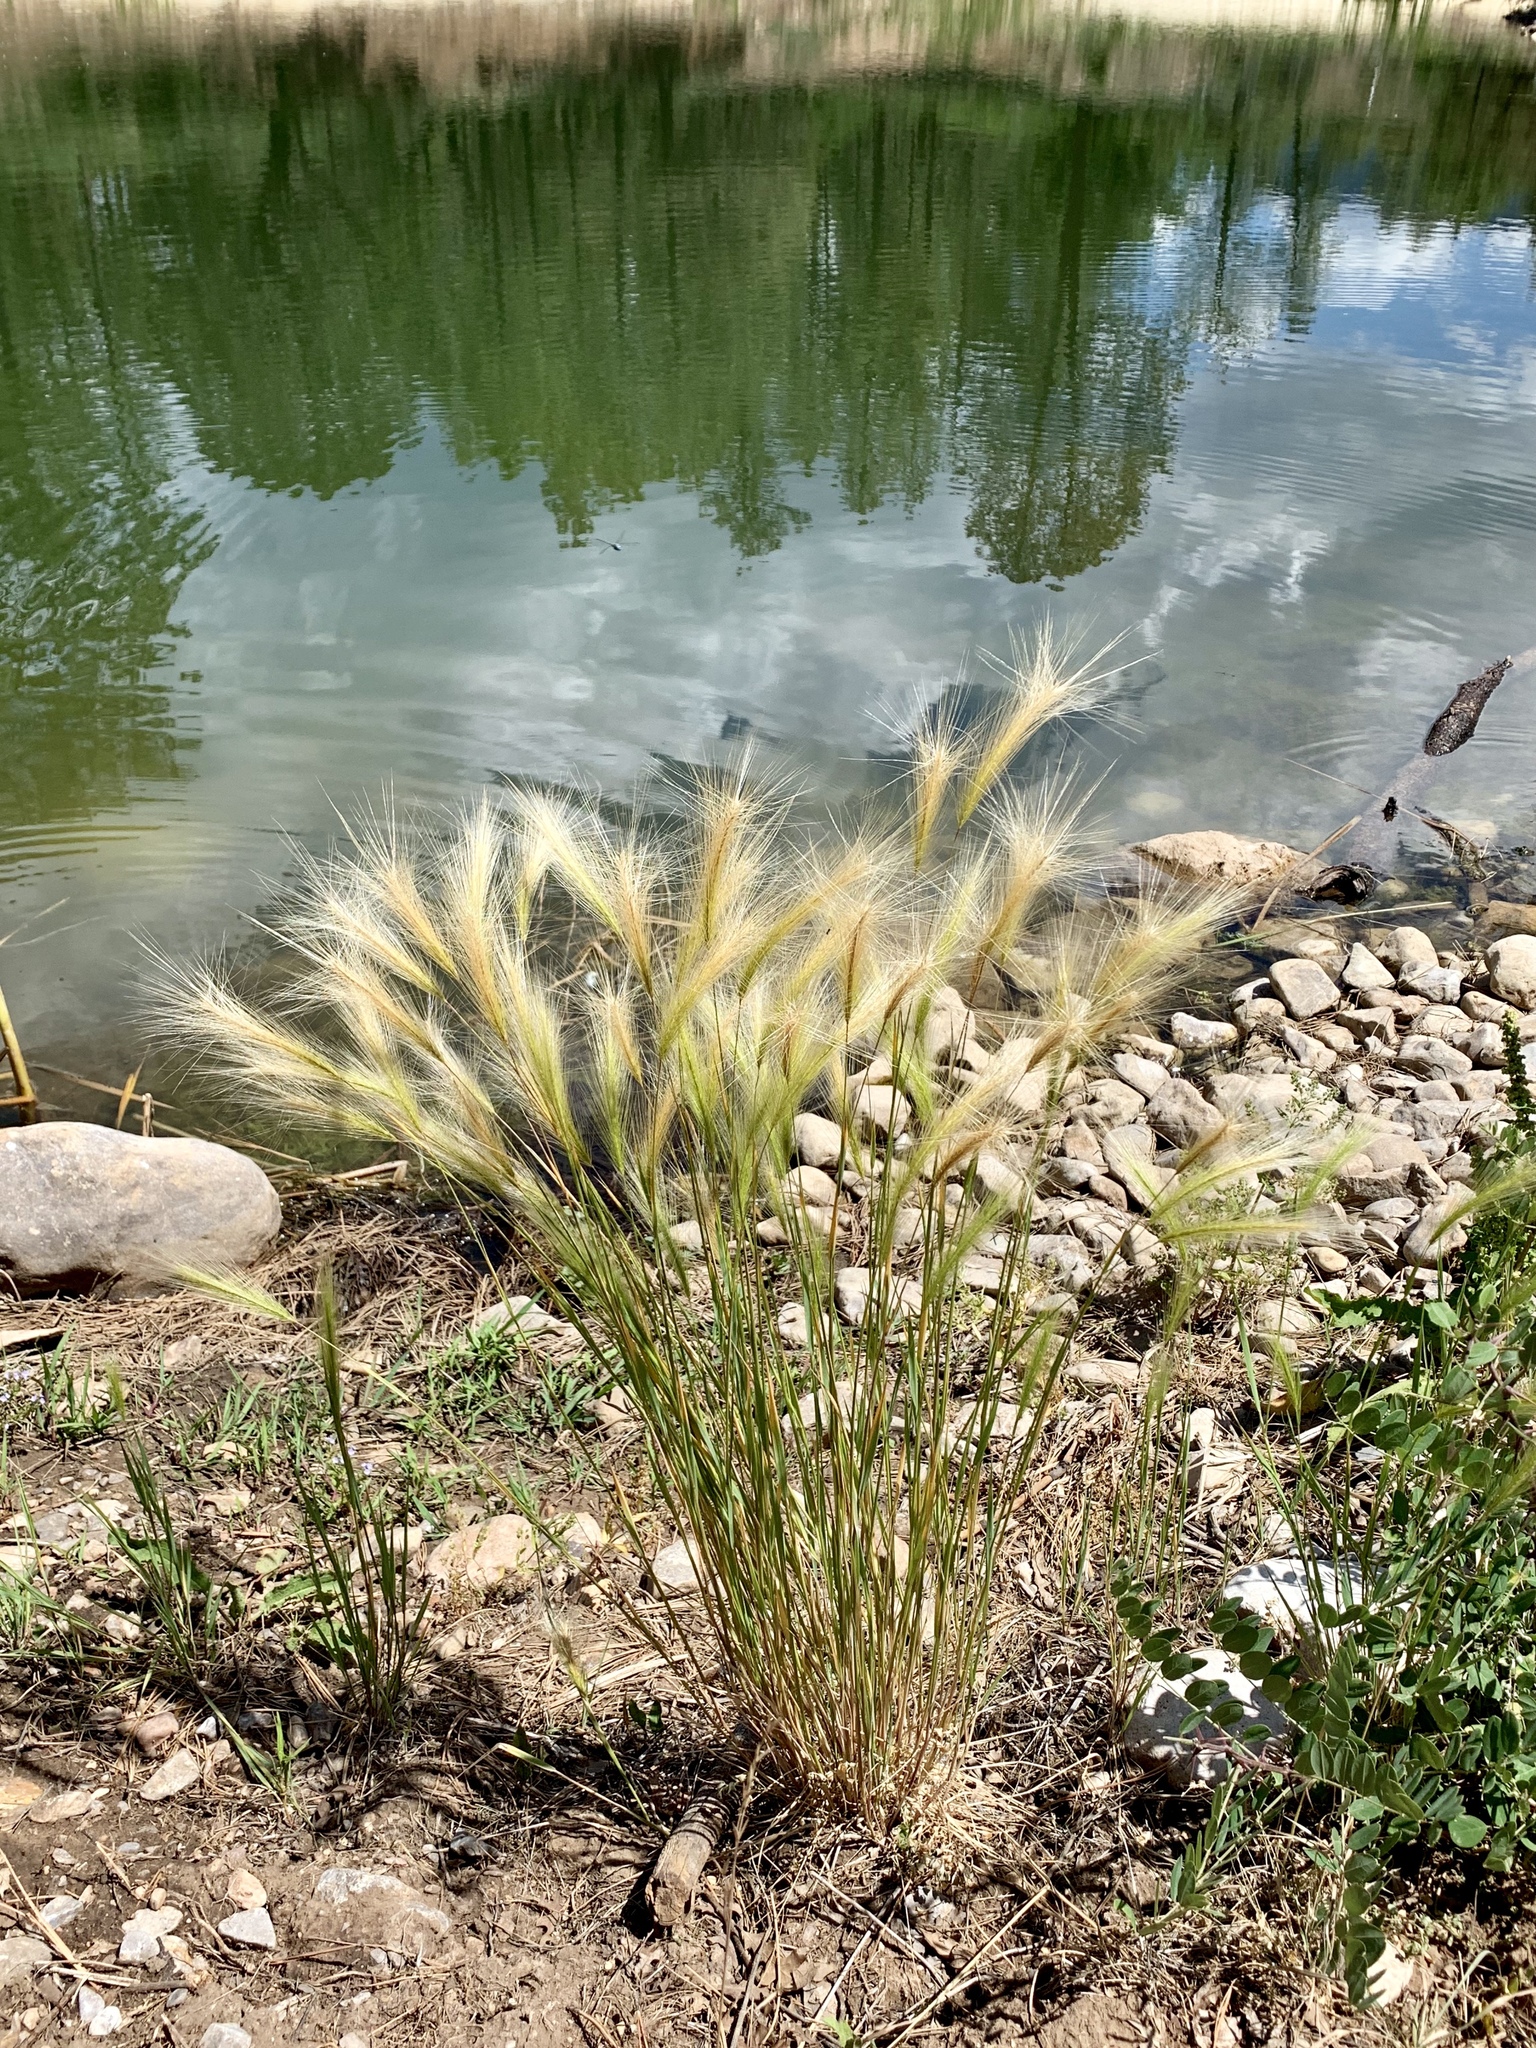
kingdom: Plantae
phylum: Tracheophyta
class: Liliopsida
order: Poales
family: Poaceae
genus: Hordeum
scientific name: Hordeum jubatum
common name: Foxtail barley
